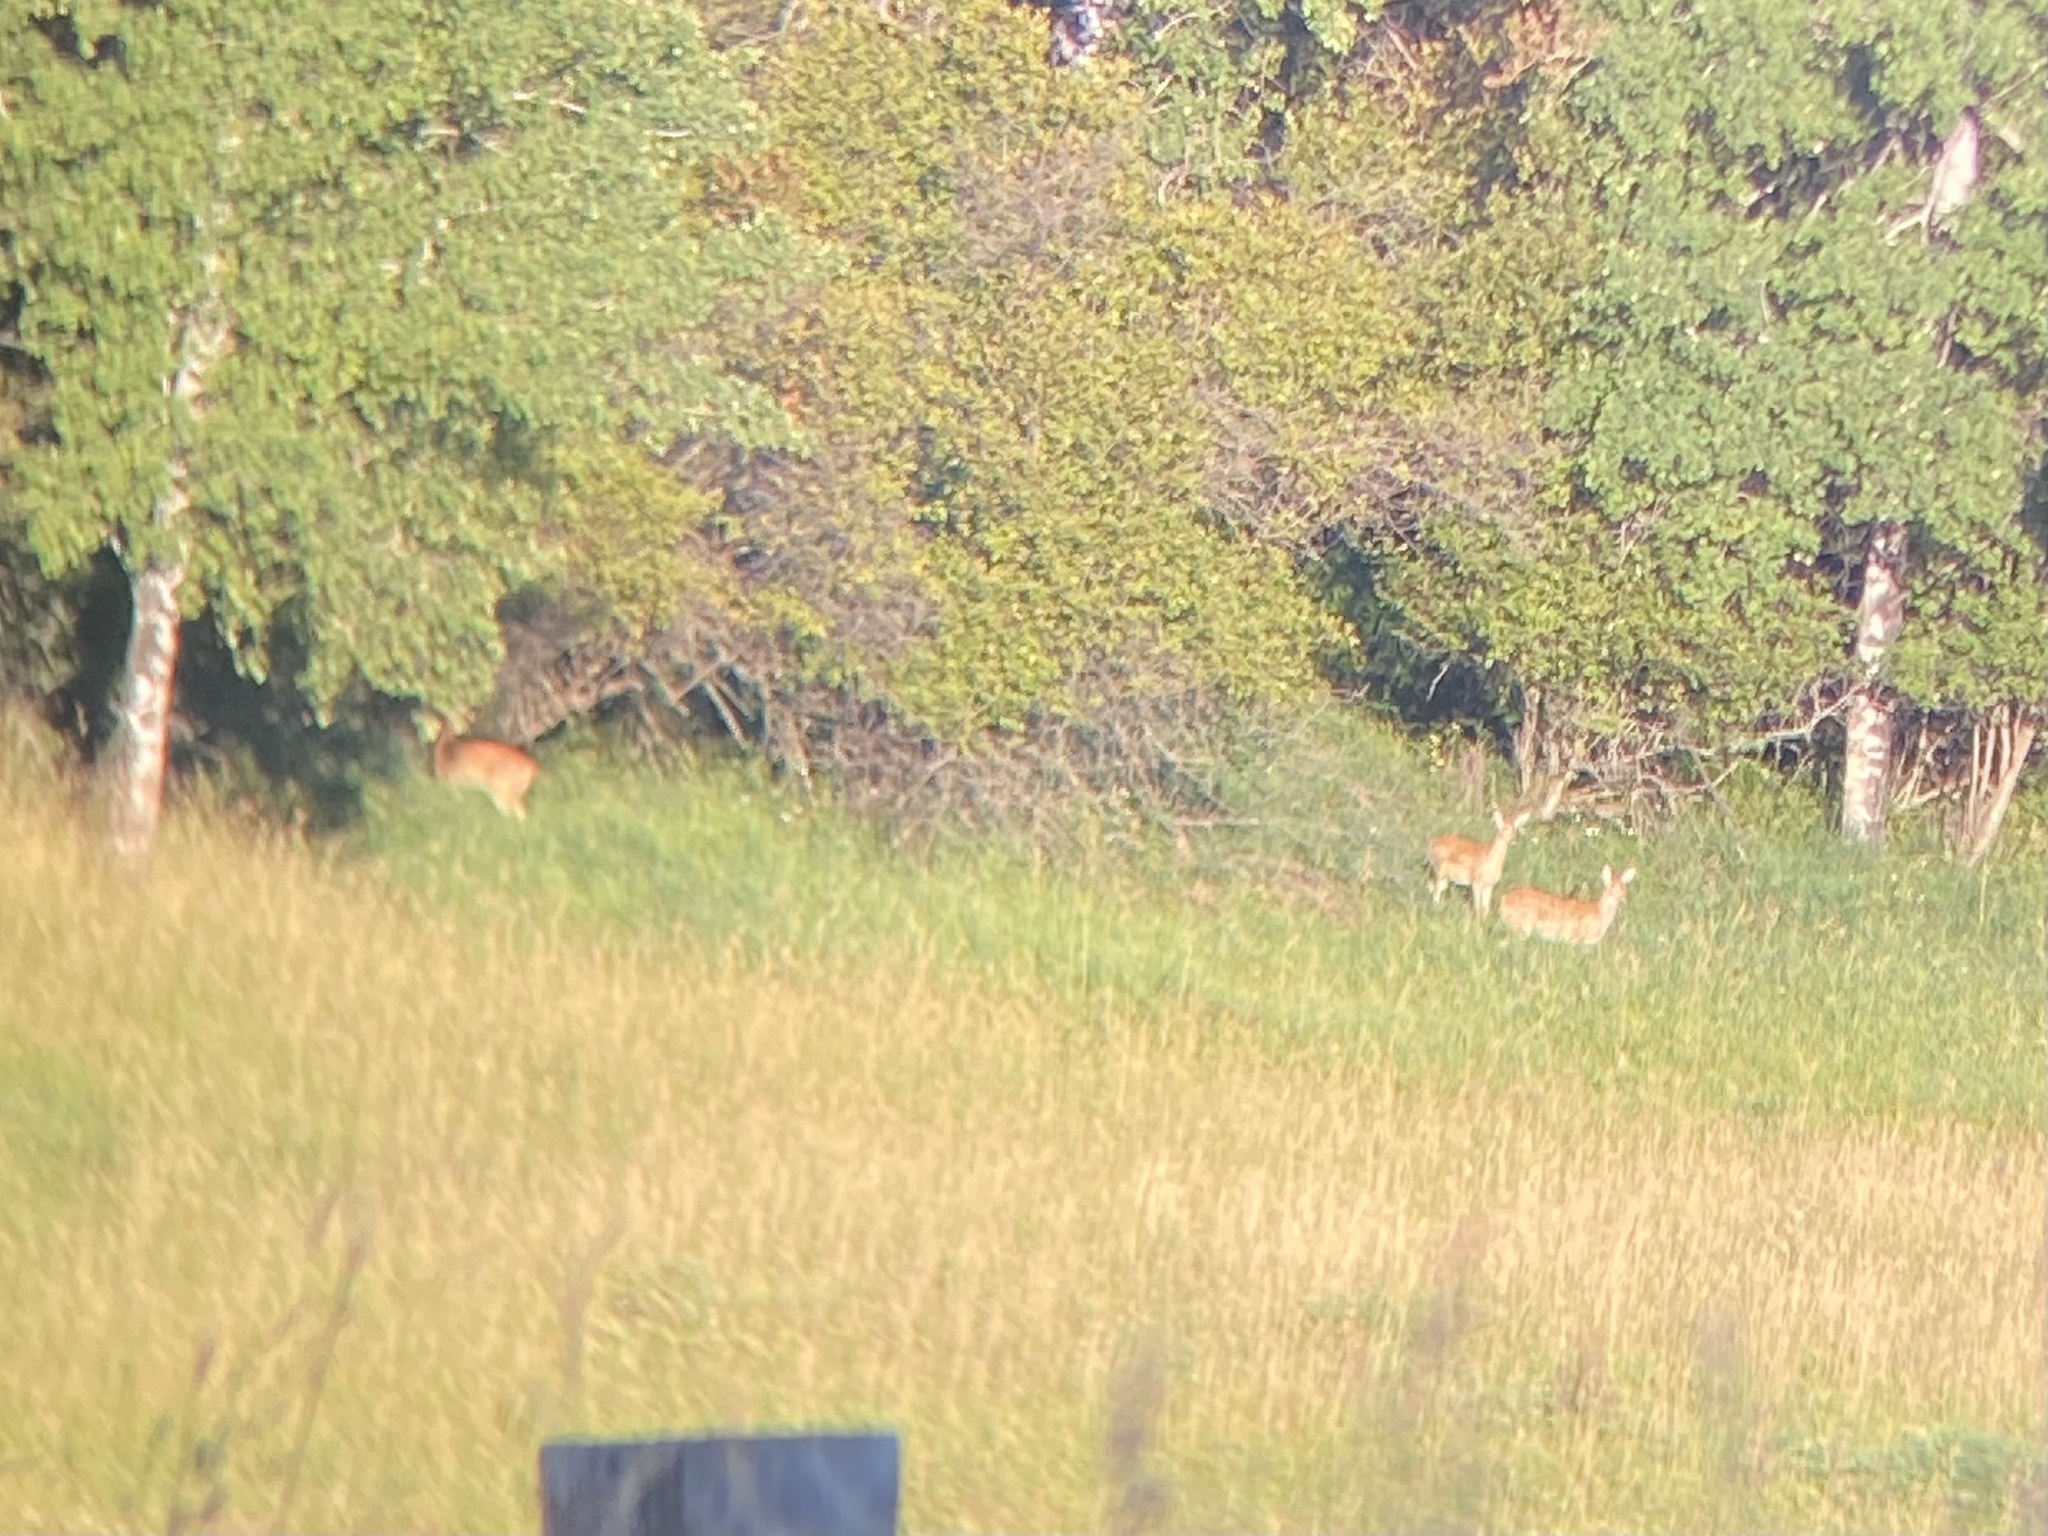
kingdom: Animalia
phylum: Chordata
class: Mammalia
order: Artiodactyla
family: Cervidae
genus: Odocoileus
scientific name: Odocoileus virginianus
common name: White-tailed deer
